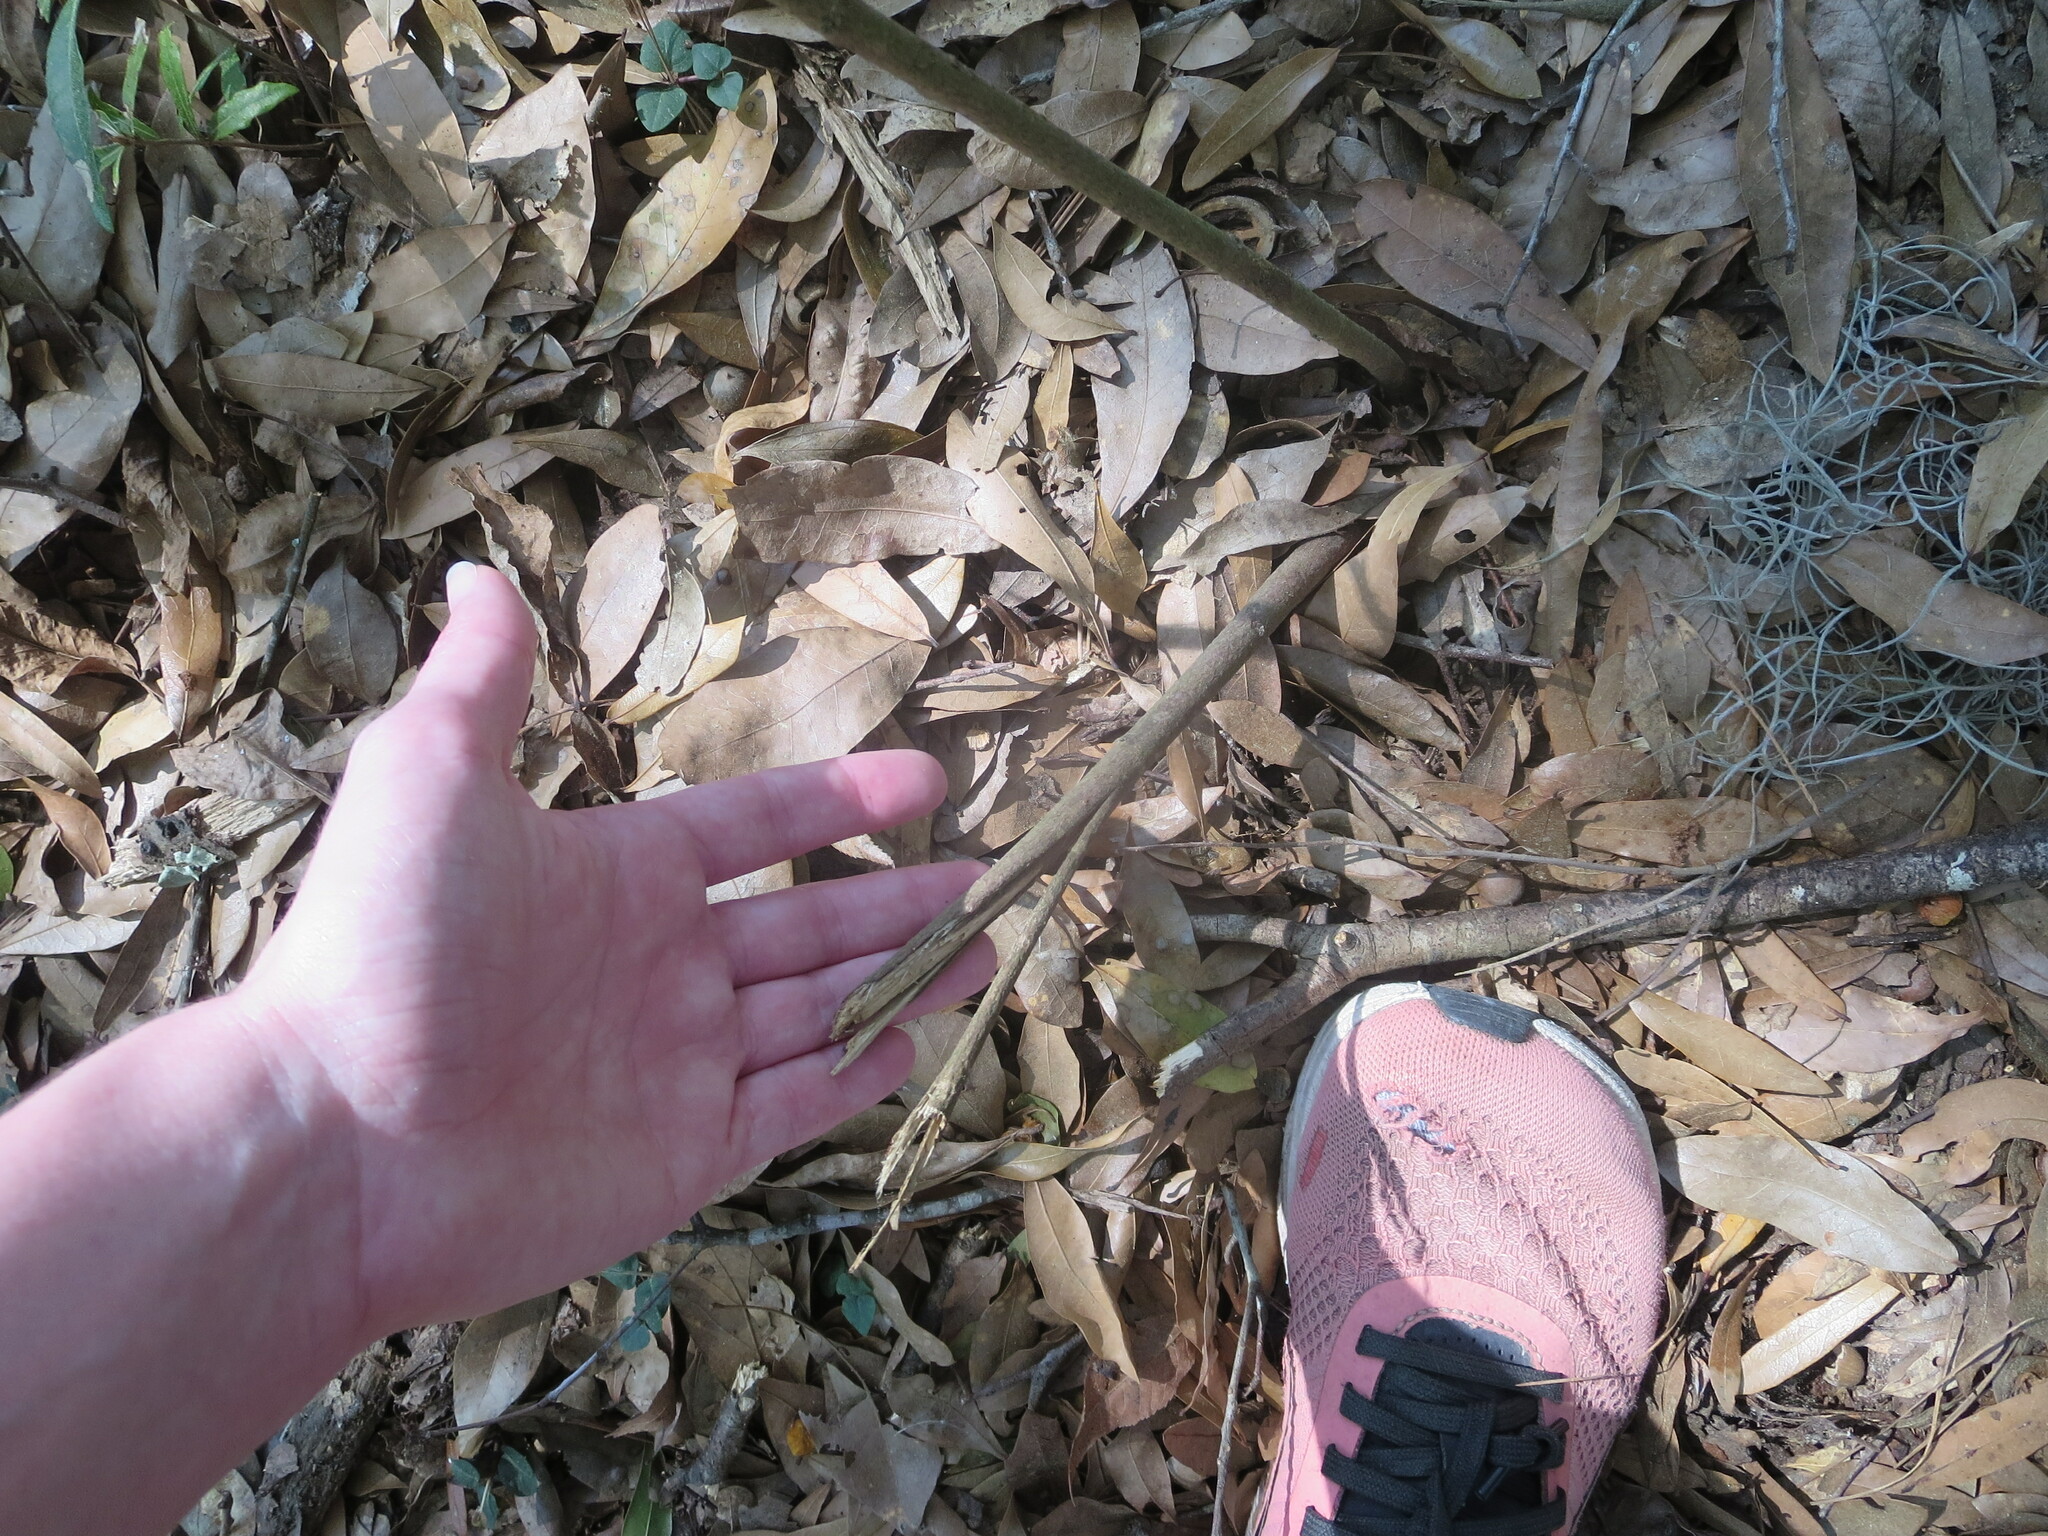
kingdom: Plantae
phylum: Tracheophyta
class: Magnoliopsida
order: Magnoliales
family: Annonaceae
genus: Asimina
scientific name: Asimina parviflora
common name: Dwarf pawpaw
